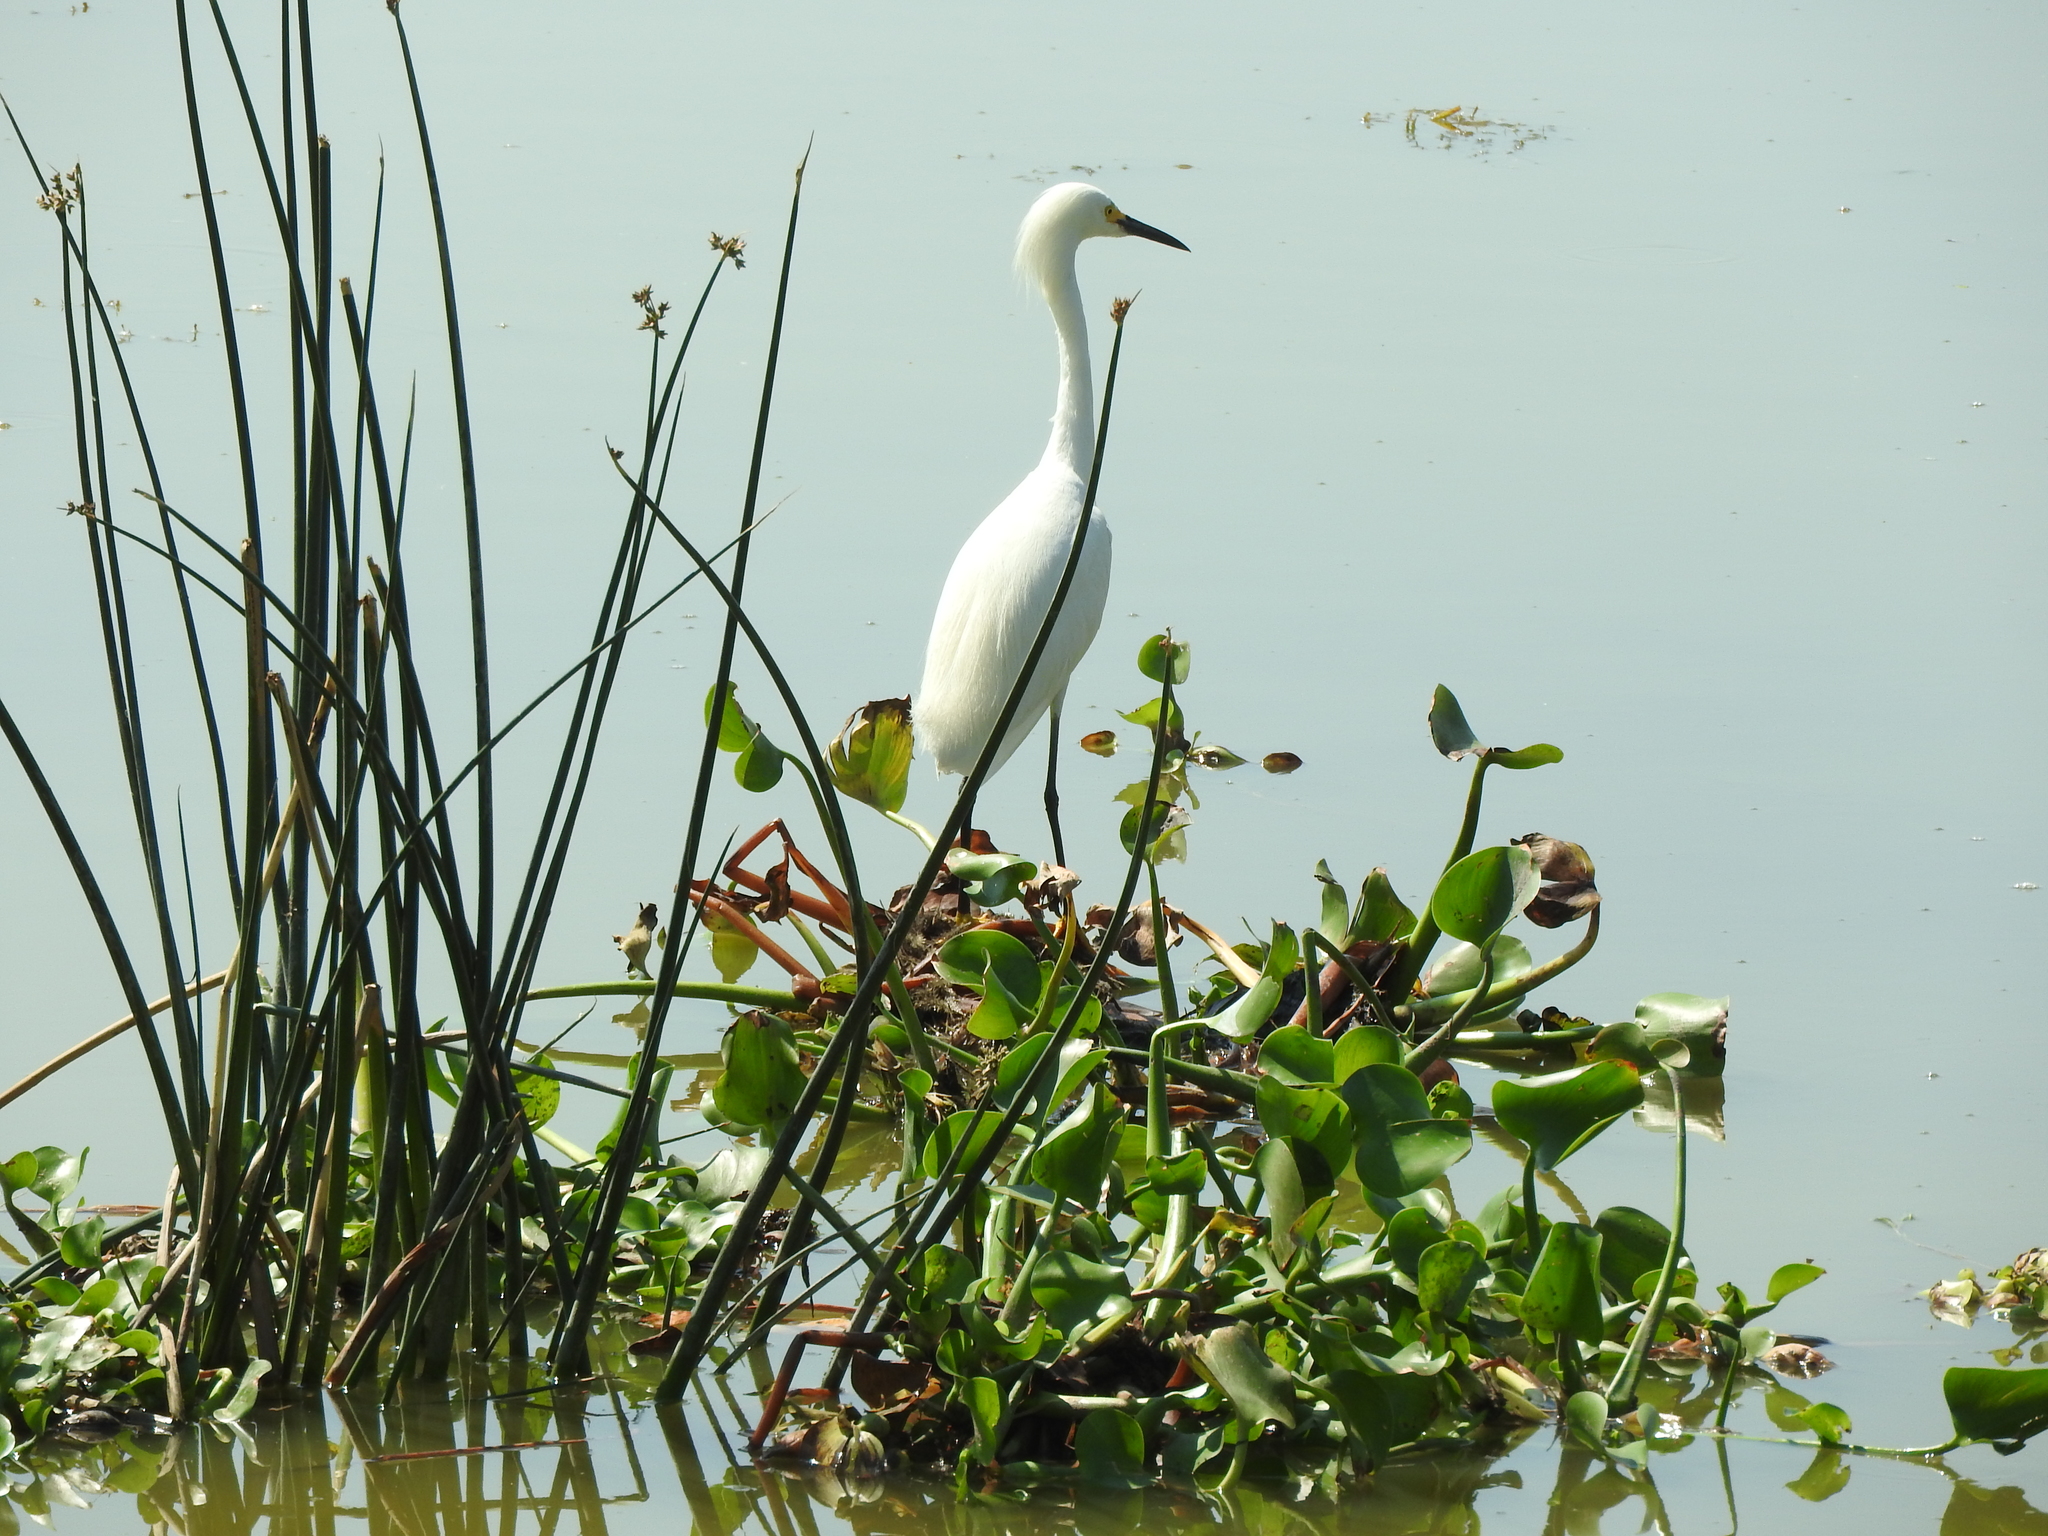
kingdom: Animalia
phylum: Chordata
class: Aves
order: Pelecaniformes
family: Ardeidae
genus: Egretta
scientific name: Egretta thula
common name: Snowy egret
